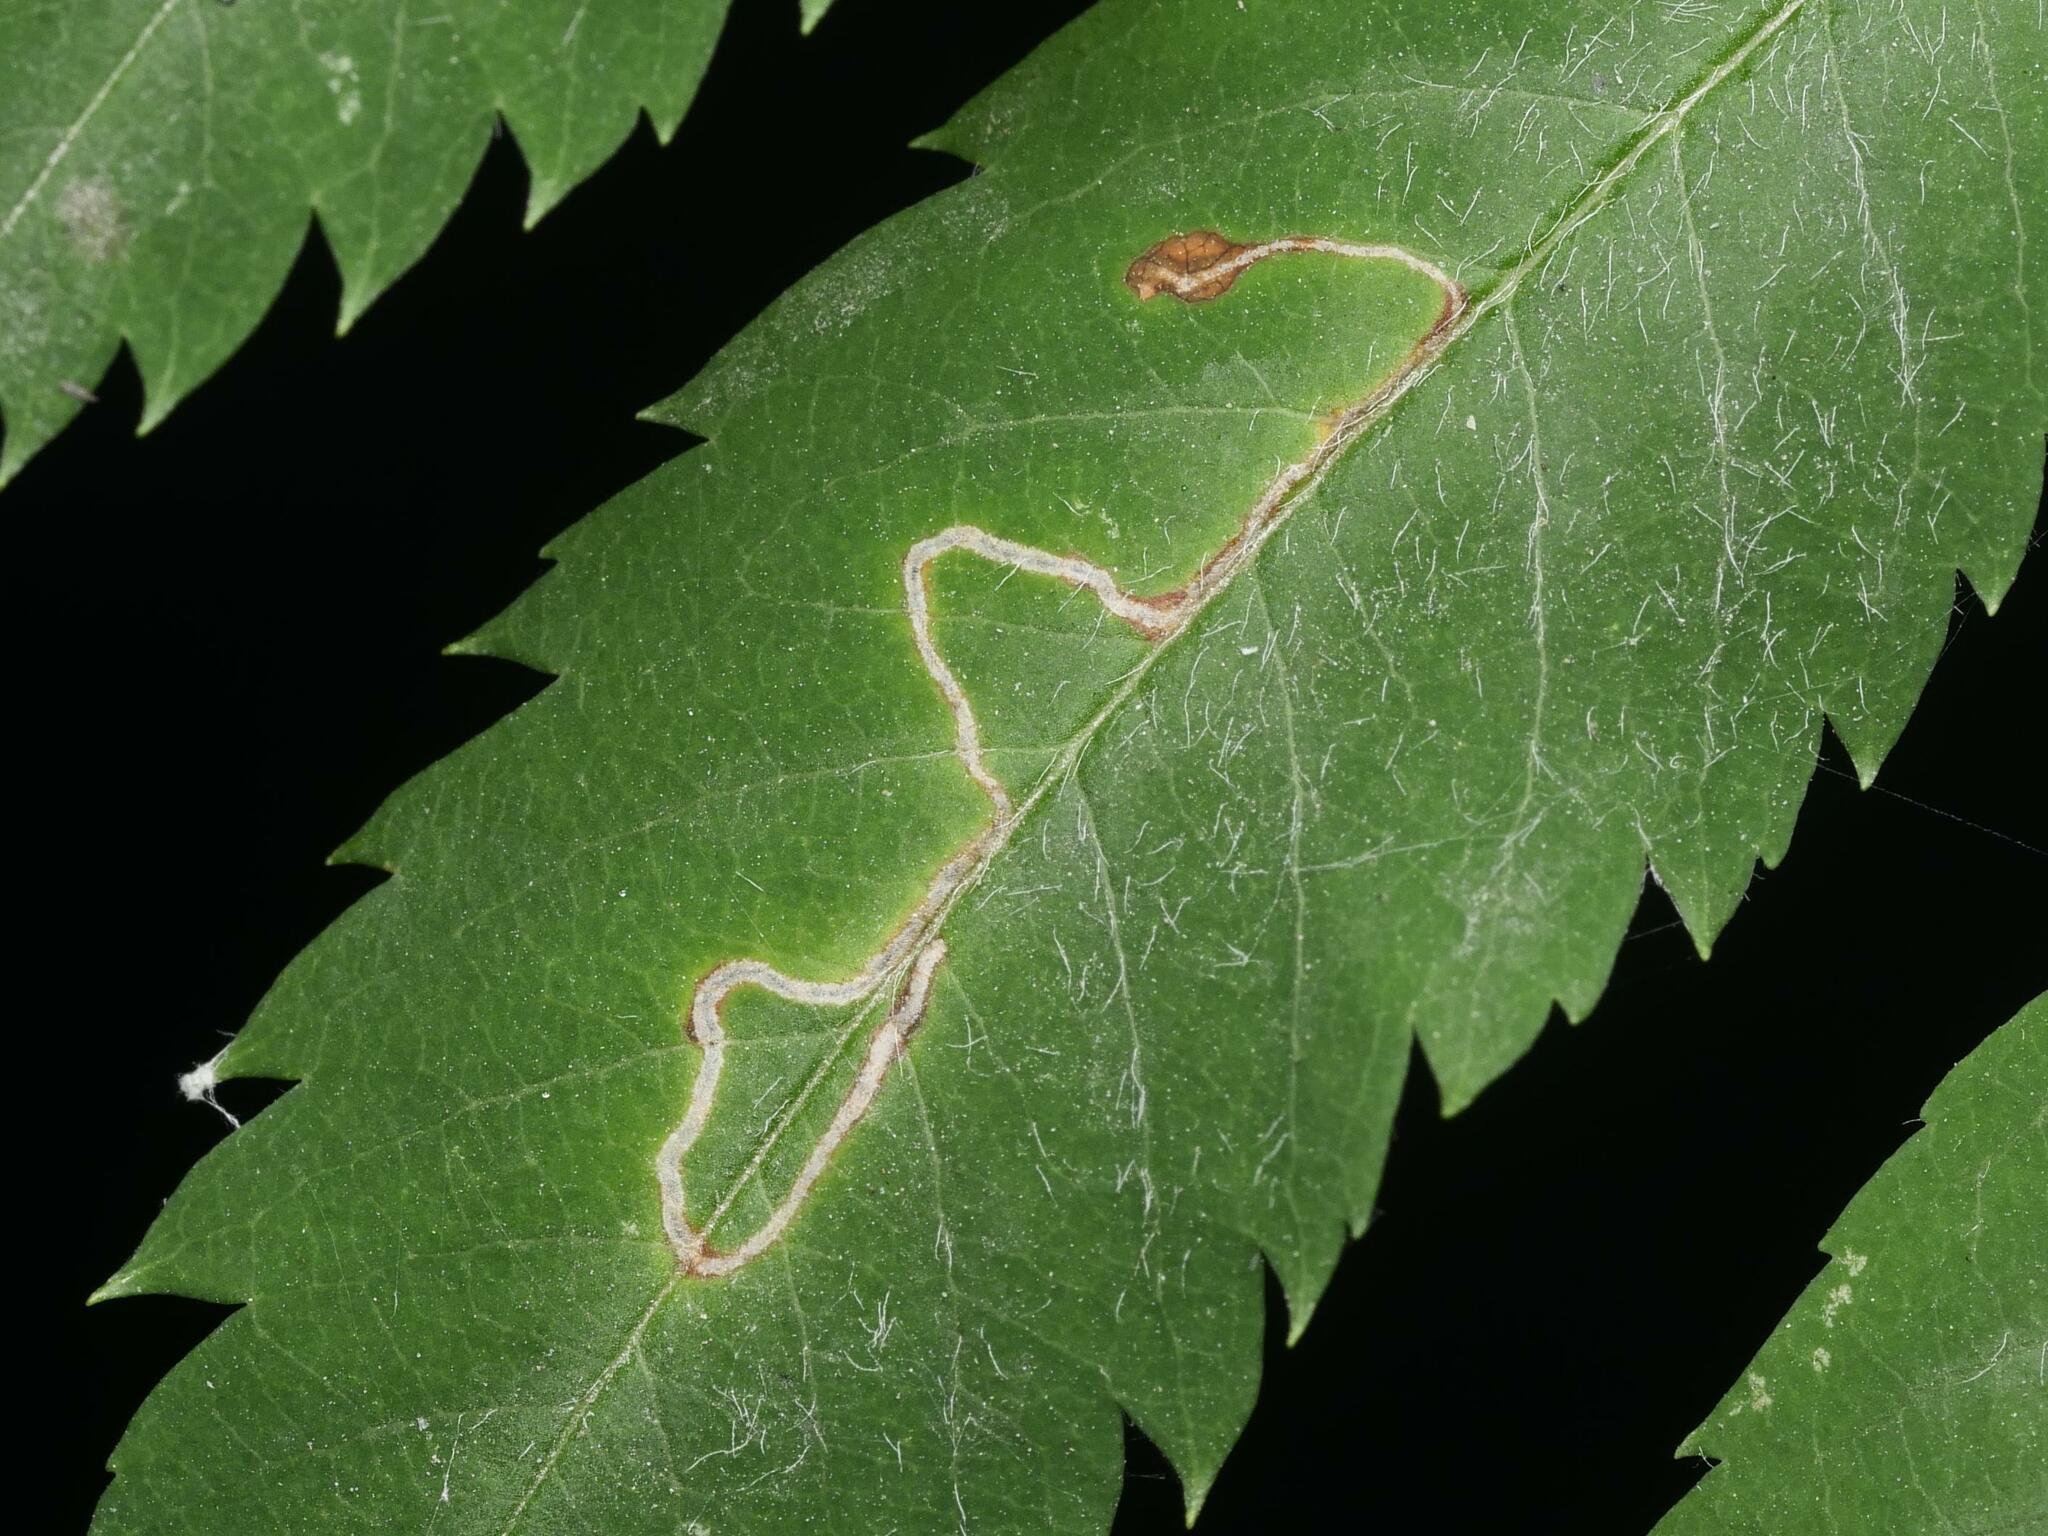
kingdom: Animalia
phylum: Arthropoda
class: Insecta
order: Lepidoptera
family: Lyonetiidae
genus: Lyonetia
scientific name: Lyonetia clerkella
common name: Apple leaf miner
